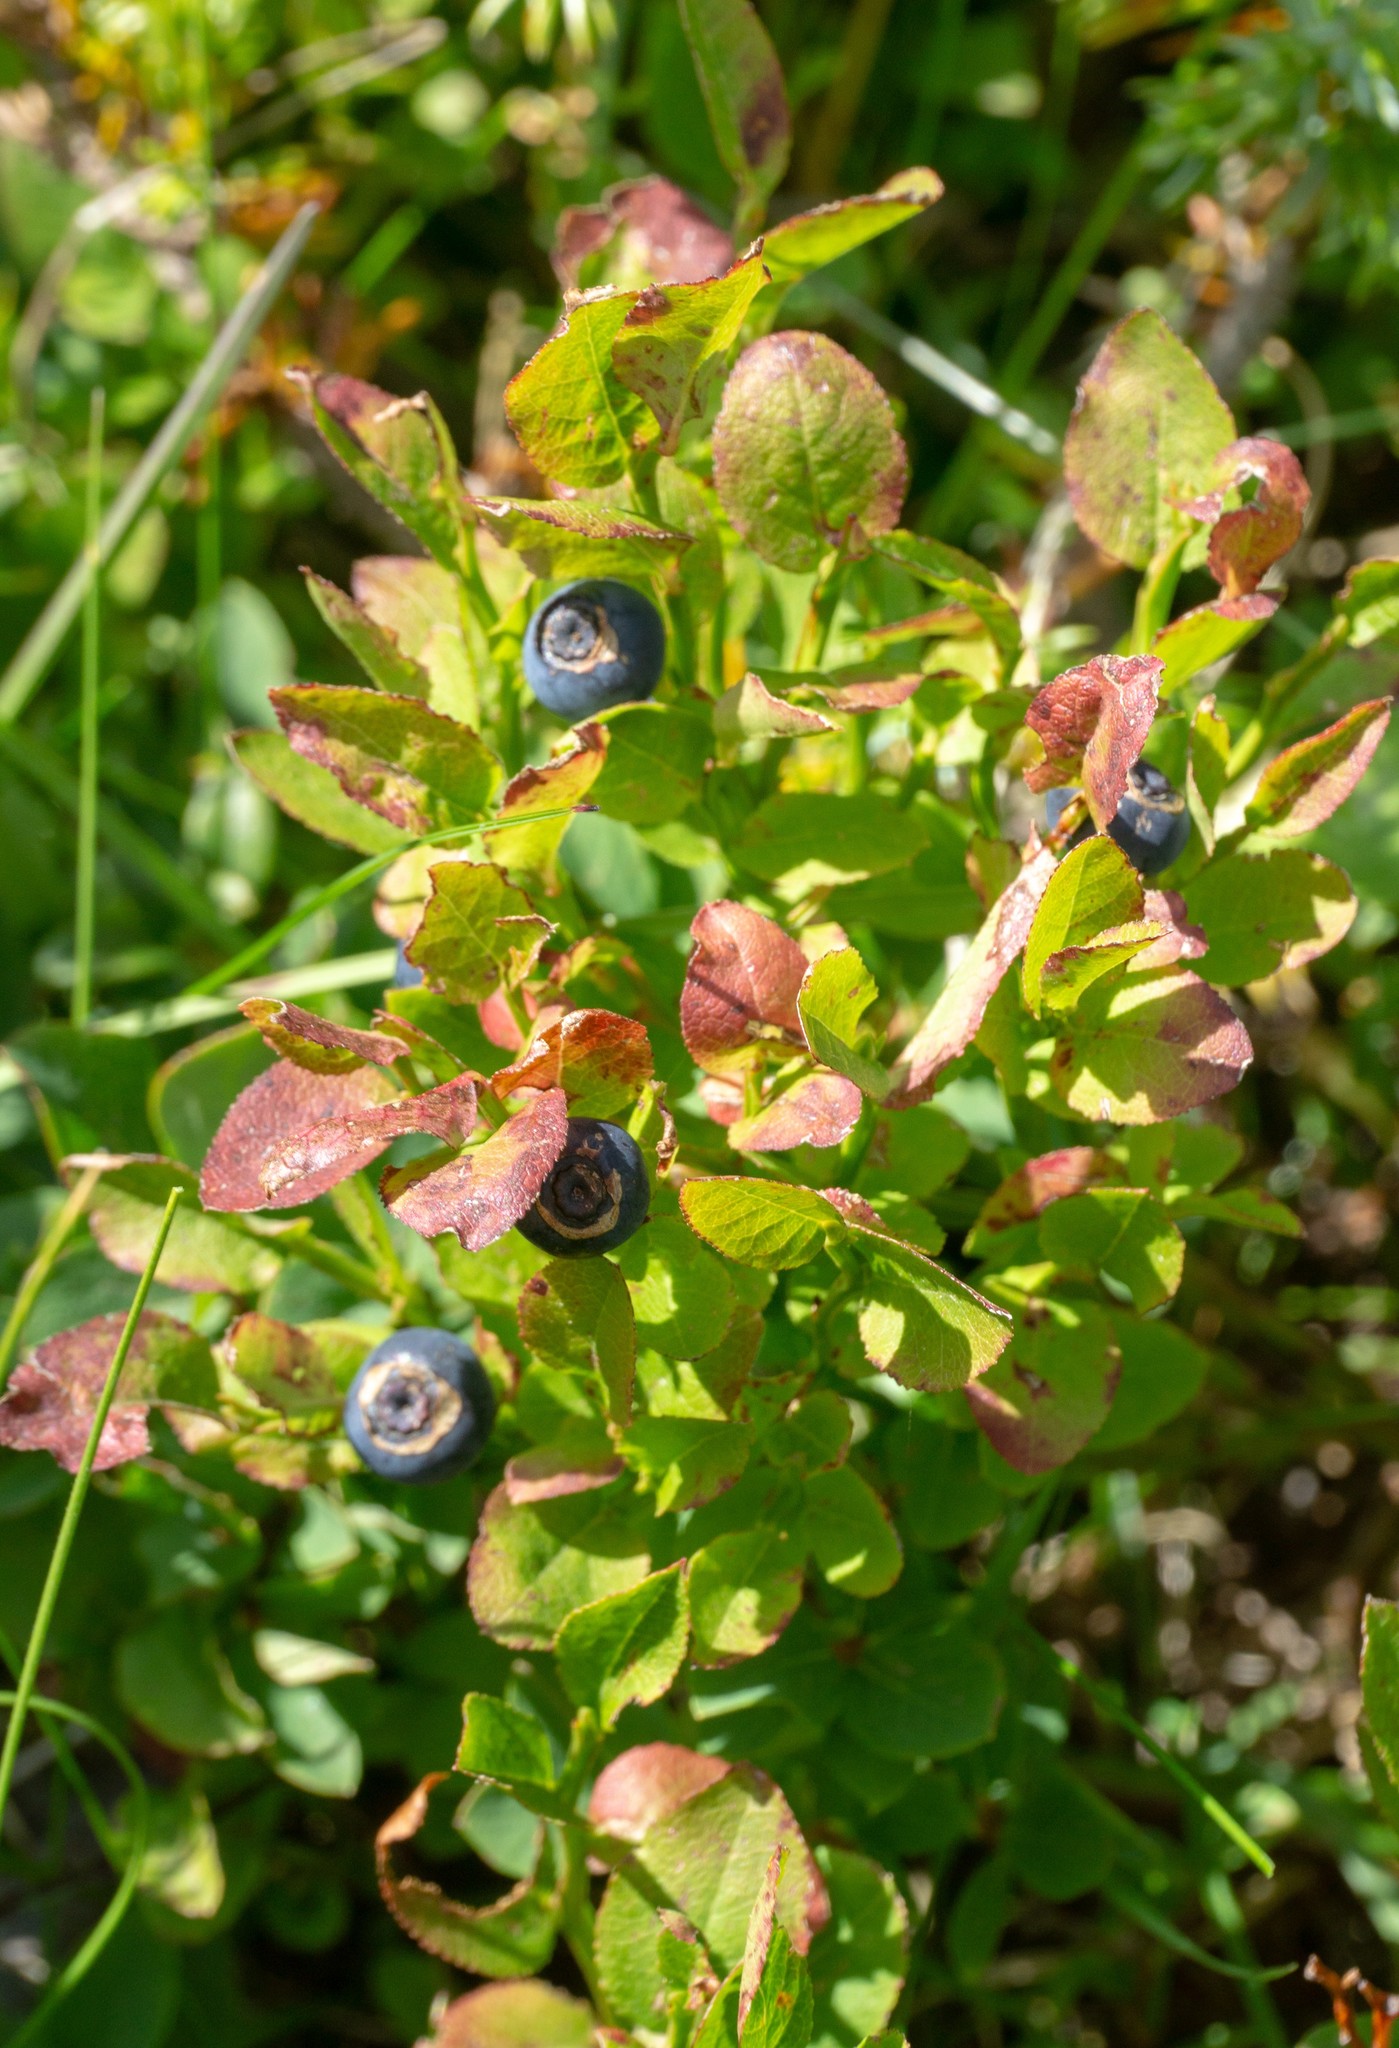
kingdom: Plantae
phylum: Tracheophyta
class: Magnoliopsida
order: Ericales
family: Ericaceae
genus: Vaccinium
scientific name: Vaccinium myrtillus
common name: Bilberry
